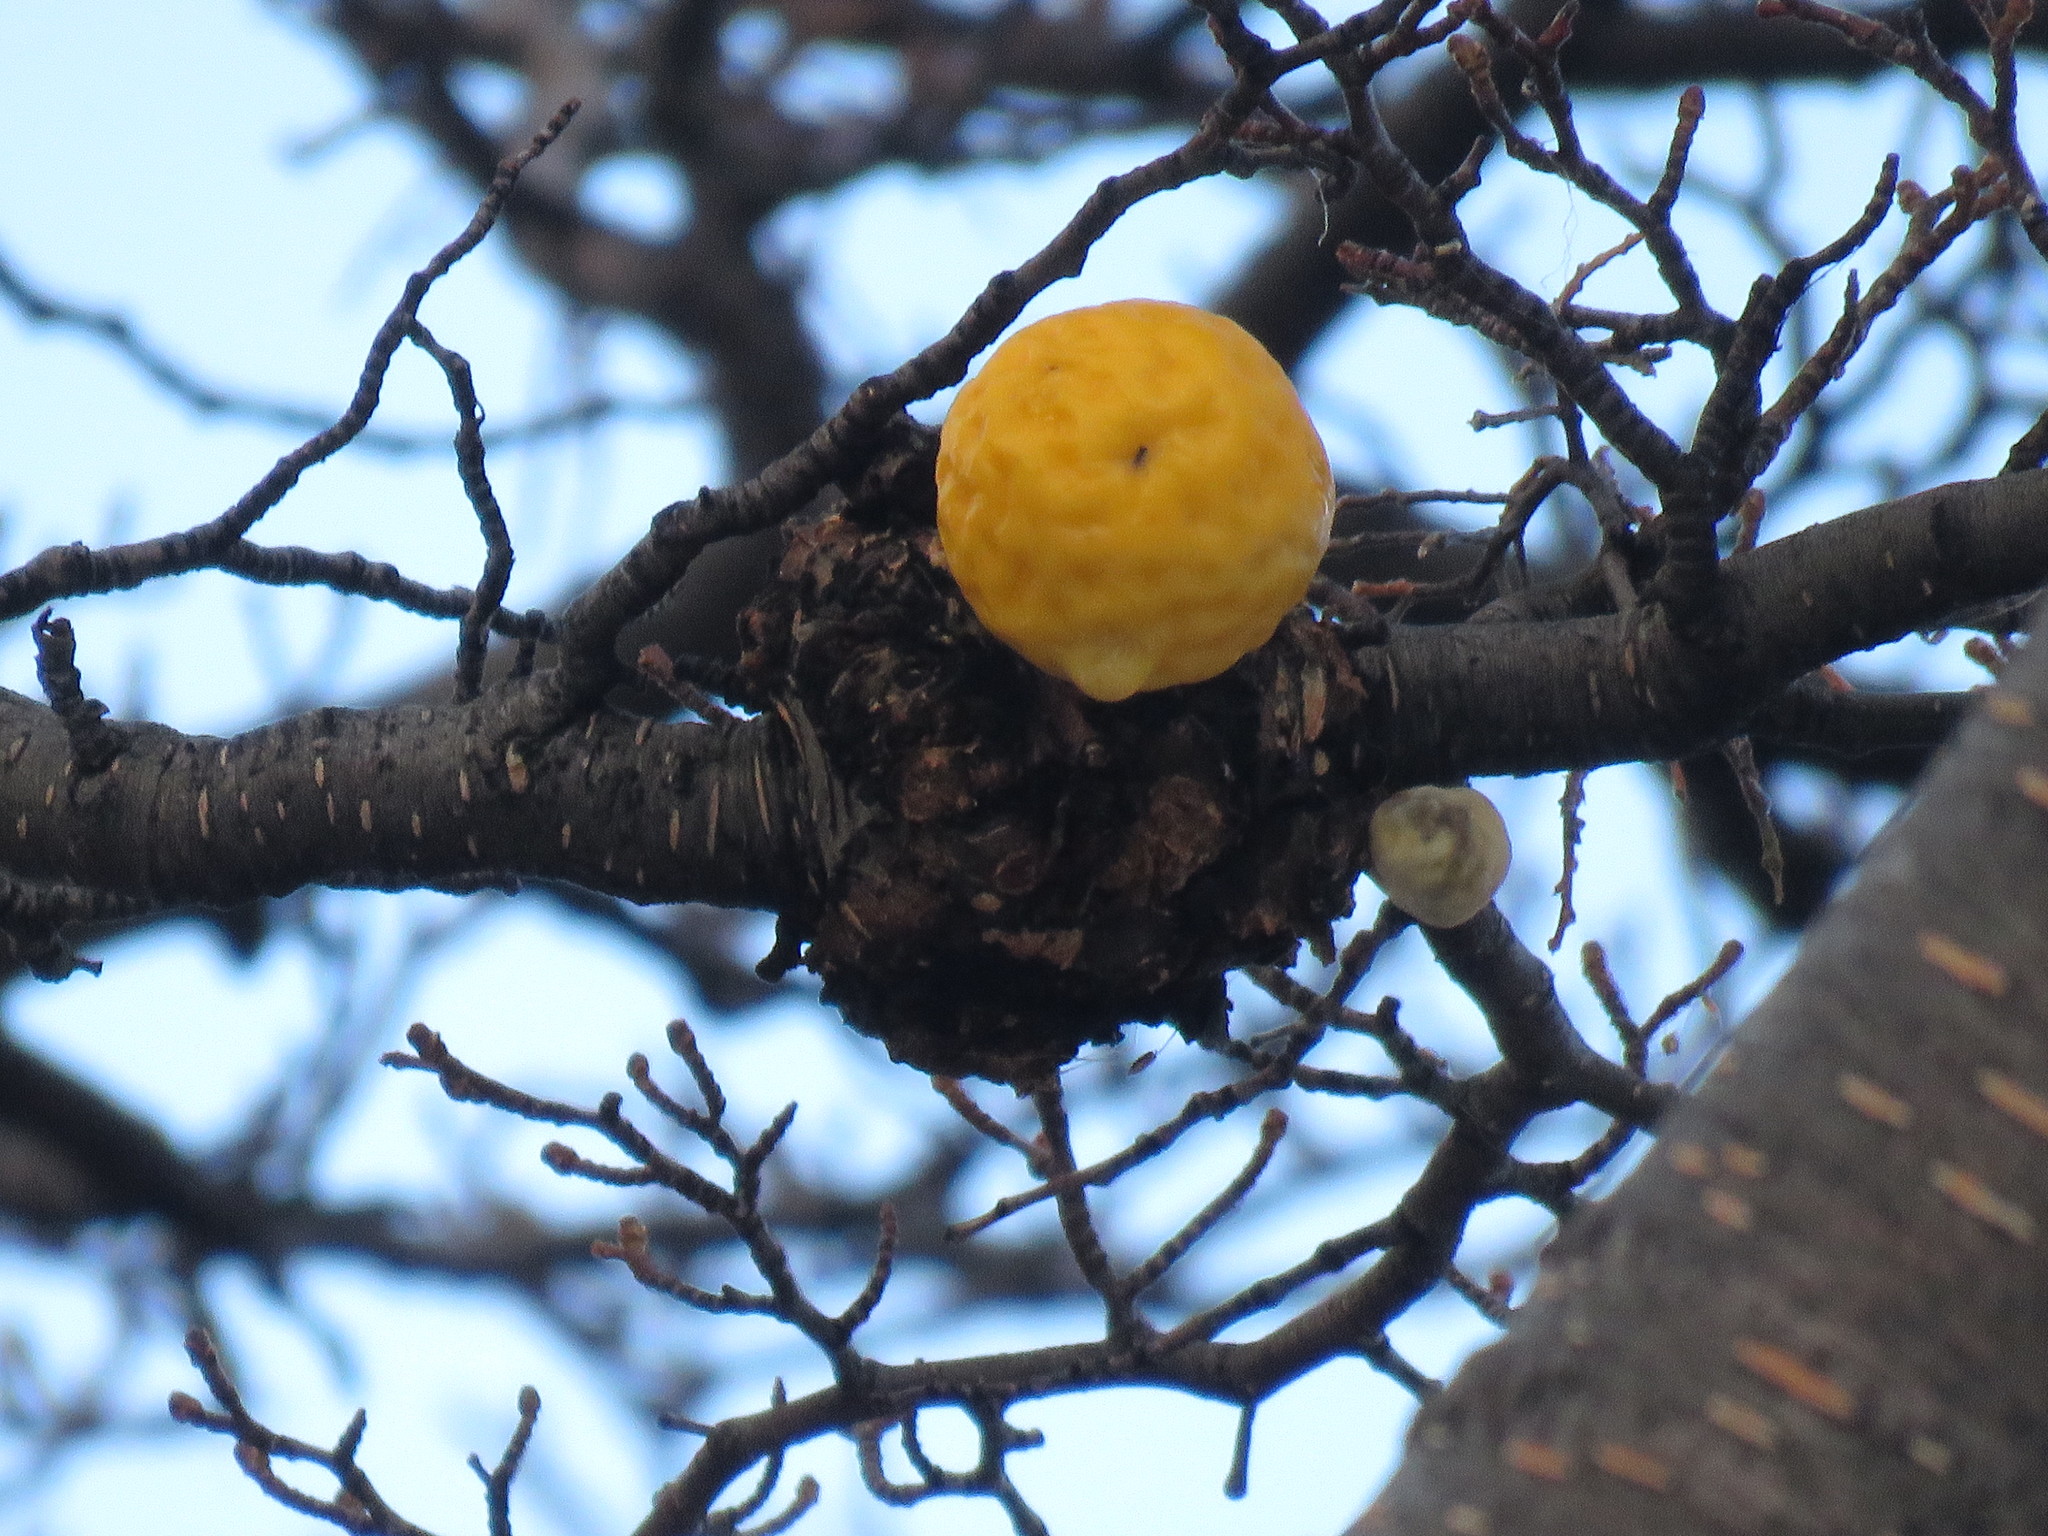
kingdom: Fungi
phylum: Ascomycota
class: Leotiomycetes
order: Cyttariales
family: Cyttariaceae
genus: Cyttaria
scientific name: Cyttaria hariotii
